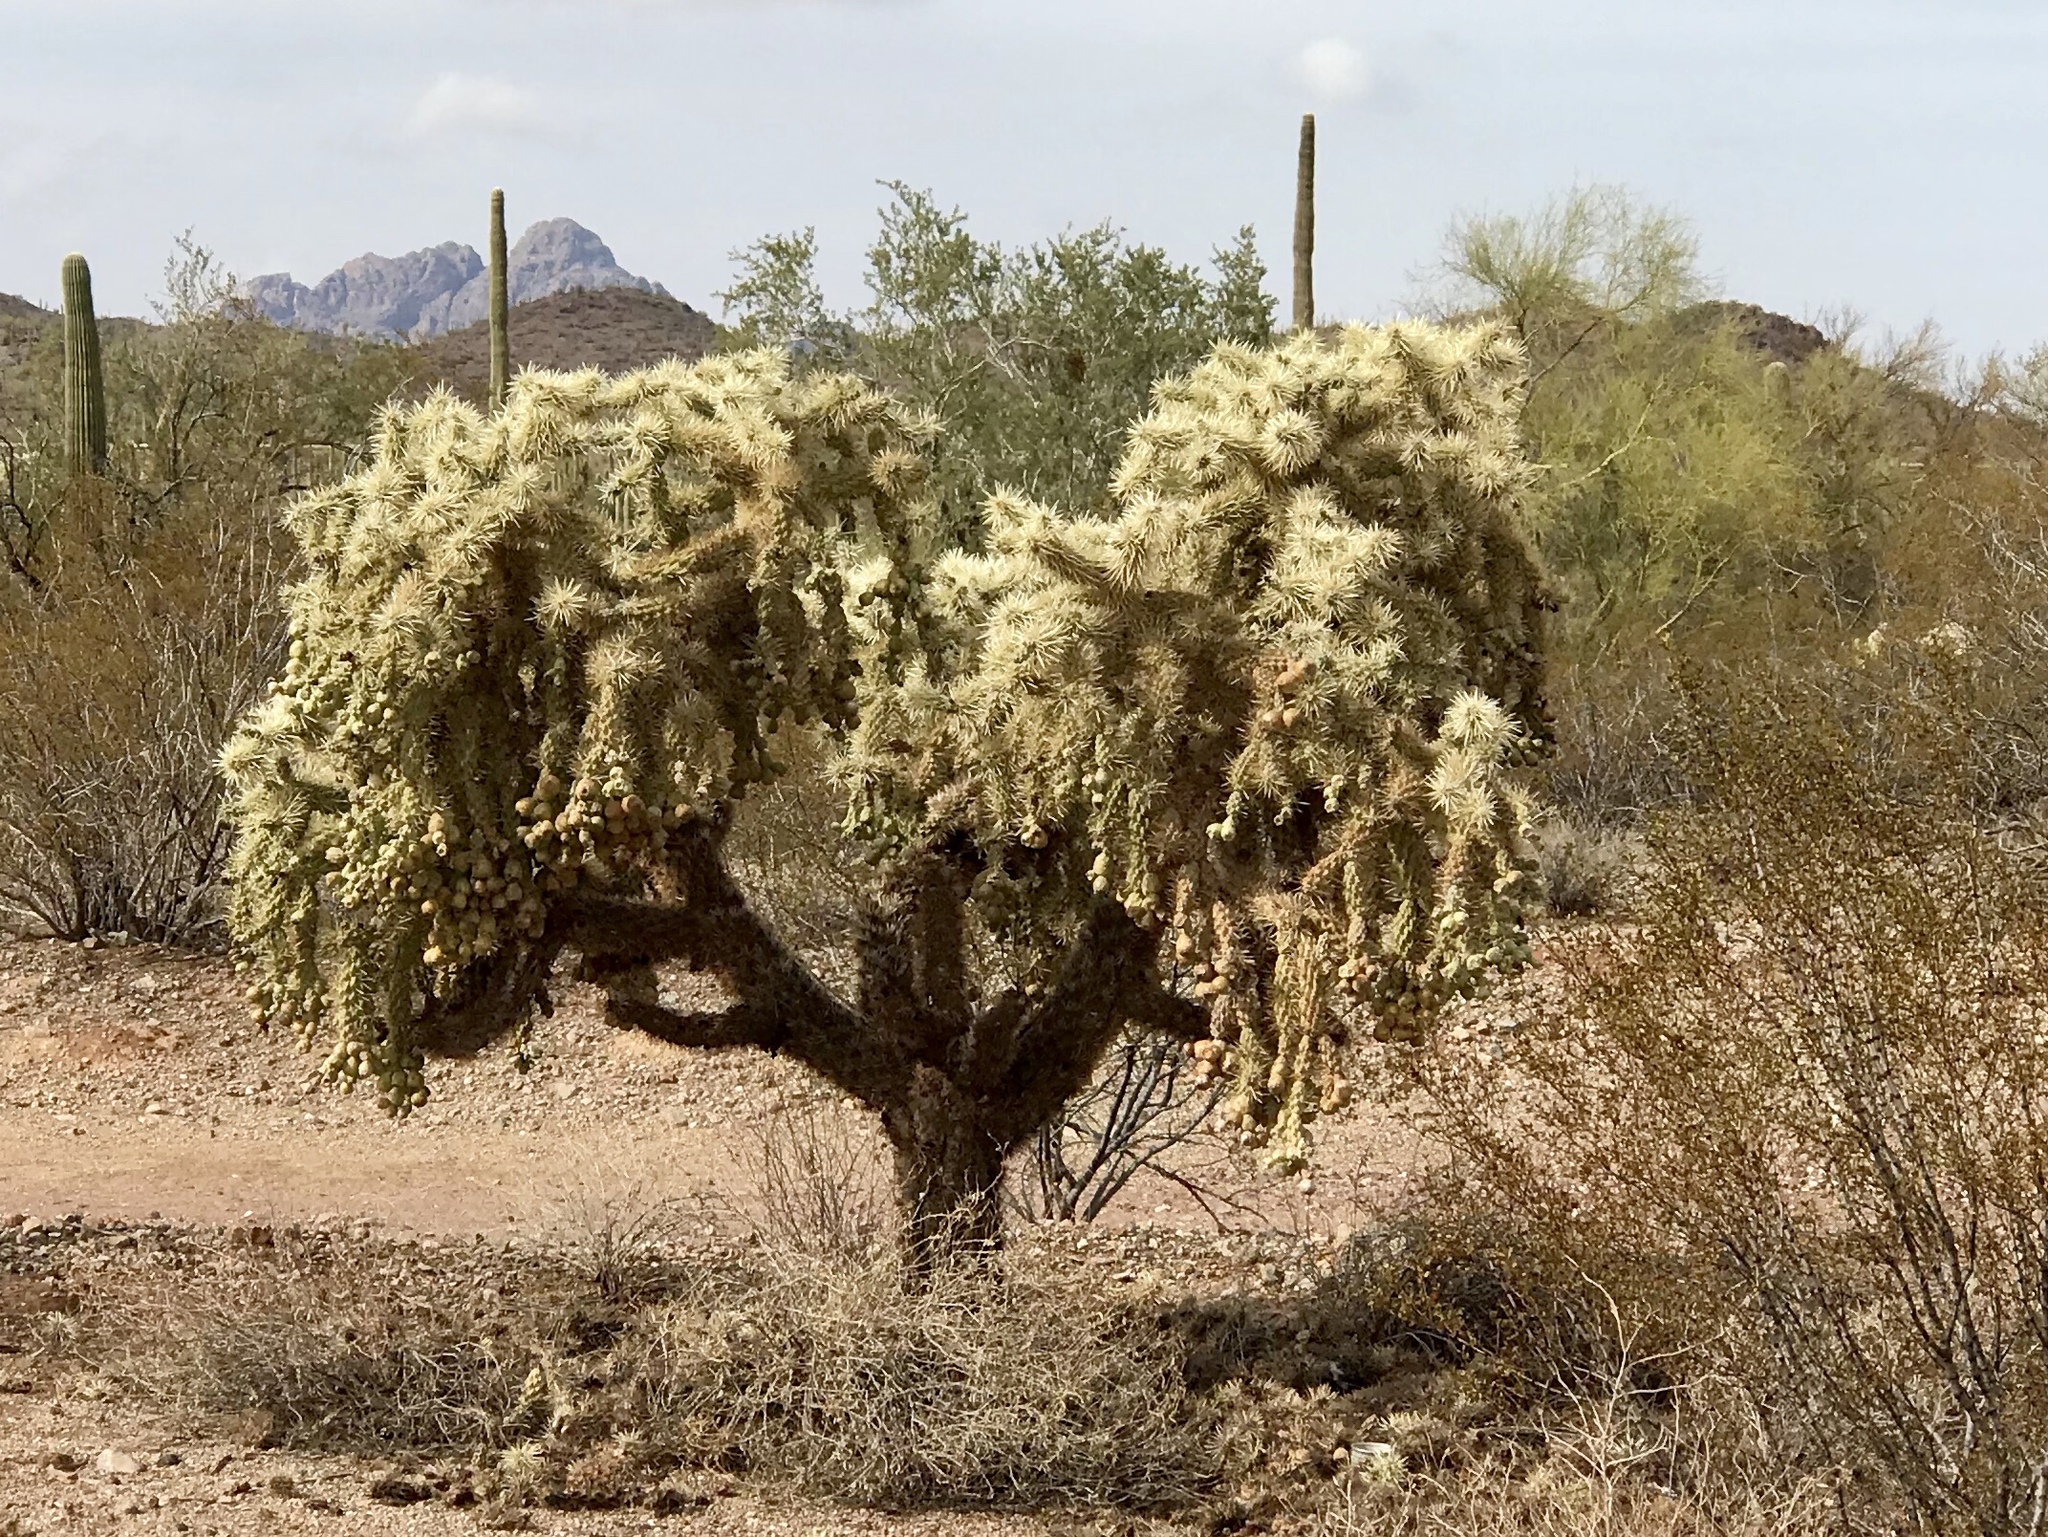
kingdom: Plantae
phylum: Tracheophyta
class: Magnoliopsida
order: Caryophyllales
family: Cactaceae
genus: Cylindropuntia
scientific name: Cylindropuntia fulgida
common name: Jumping cholla
